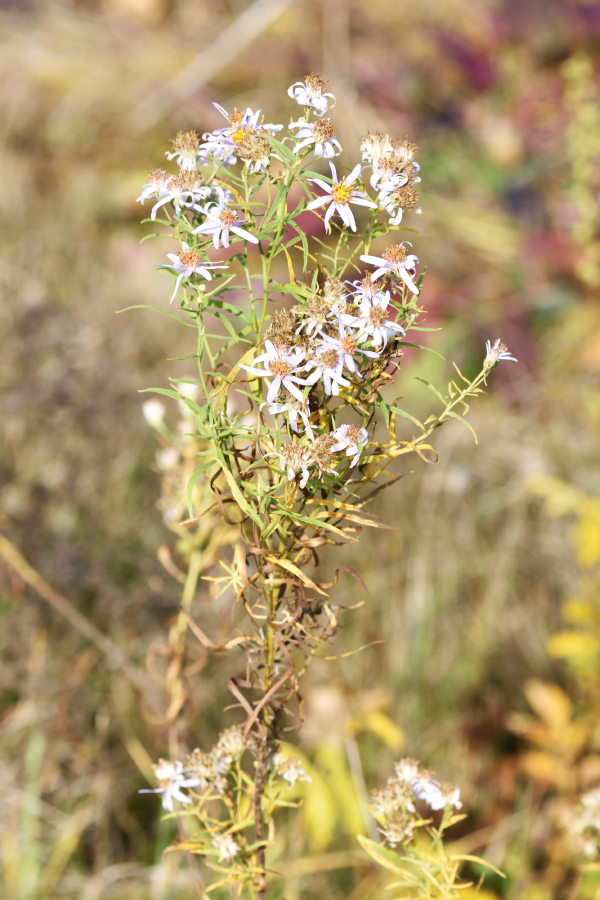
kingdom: Plantae
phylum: Tracheophyta
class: Magnoliopsida
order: Asterales
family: Asteraceae
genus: Galatella
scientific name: Galatella sedifolia
